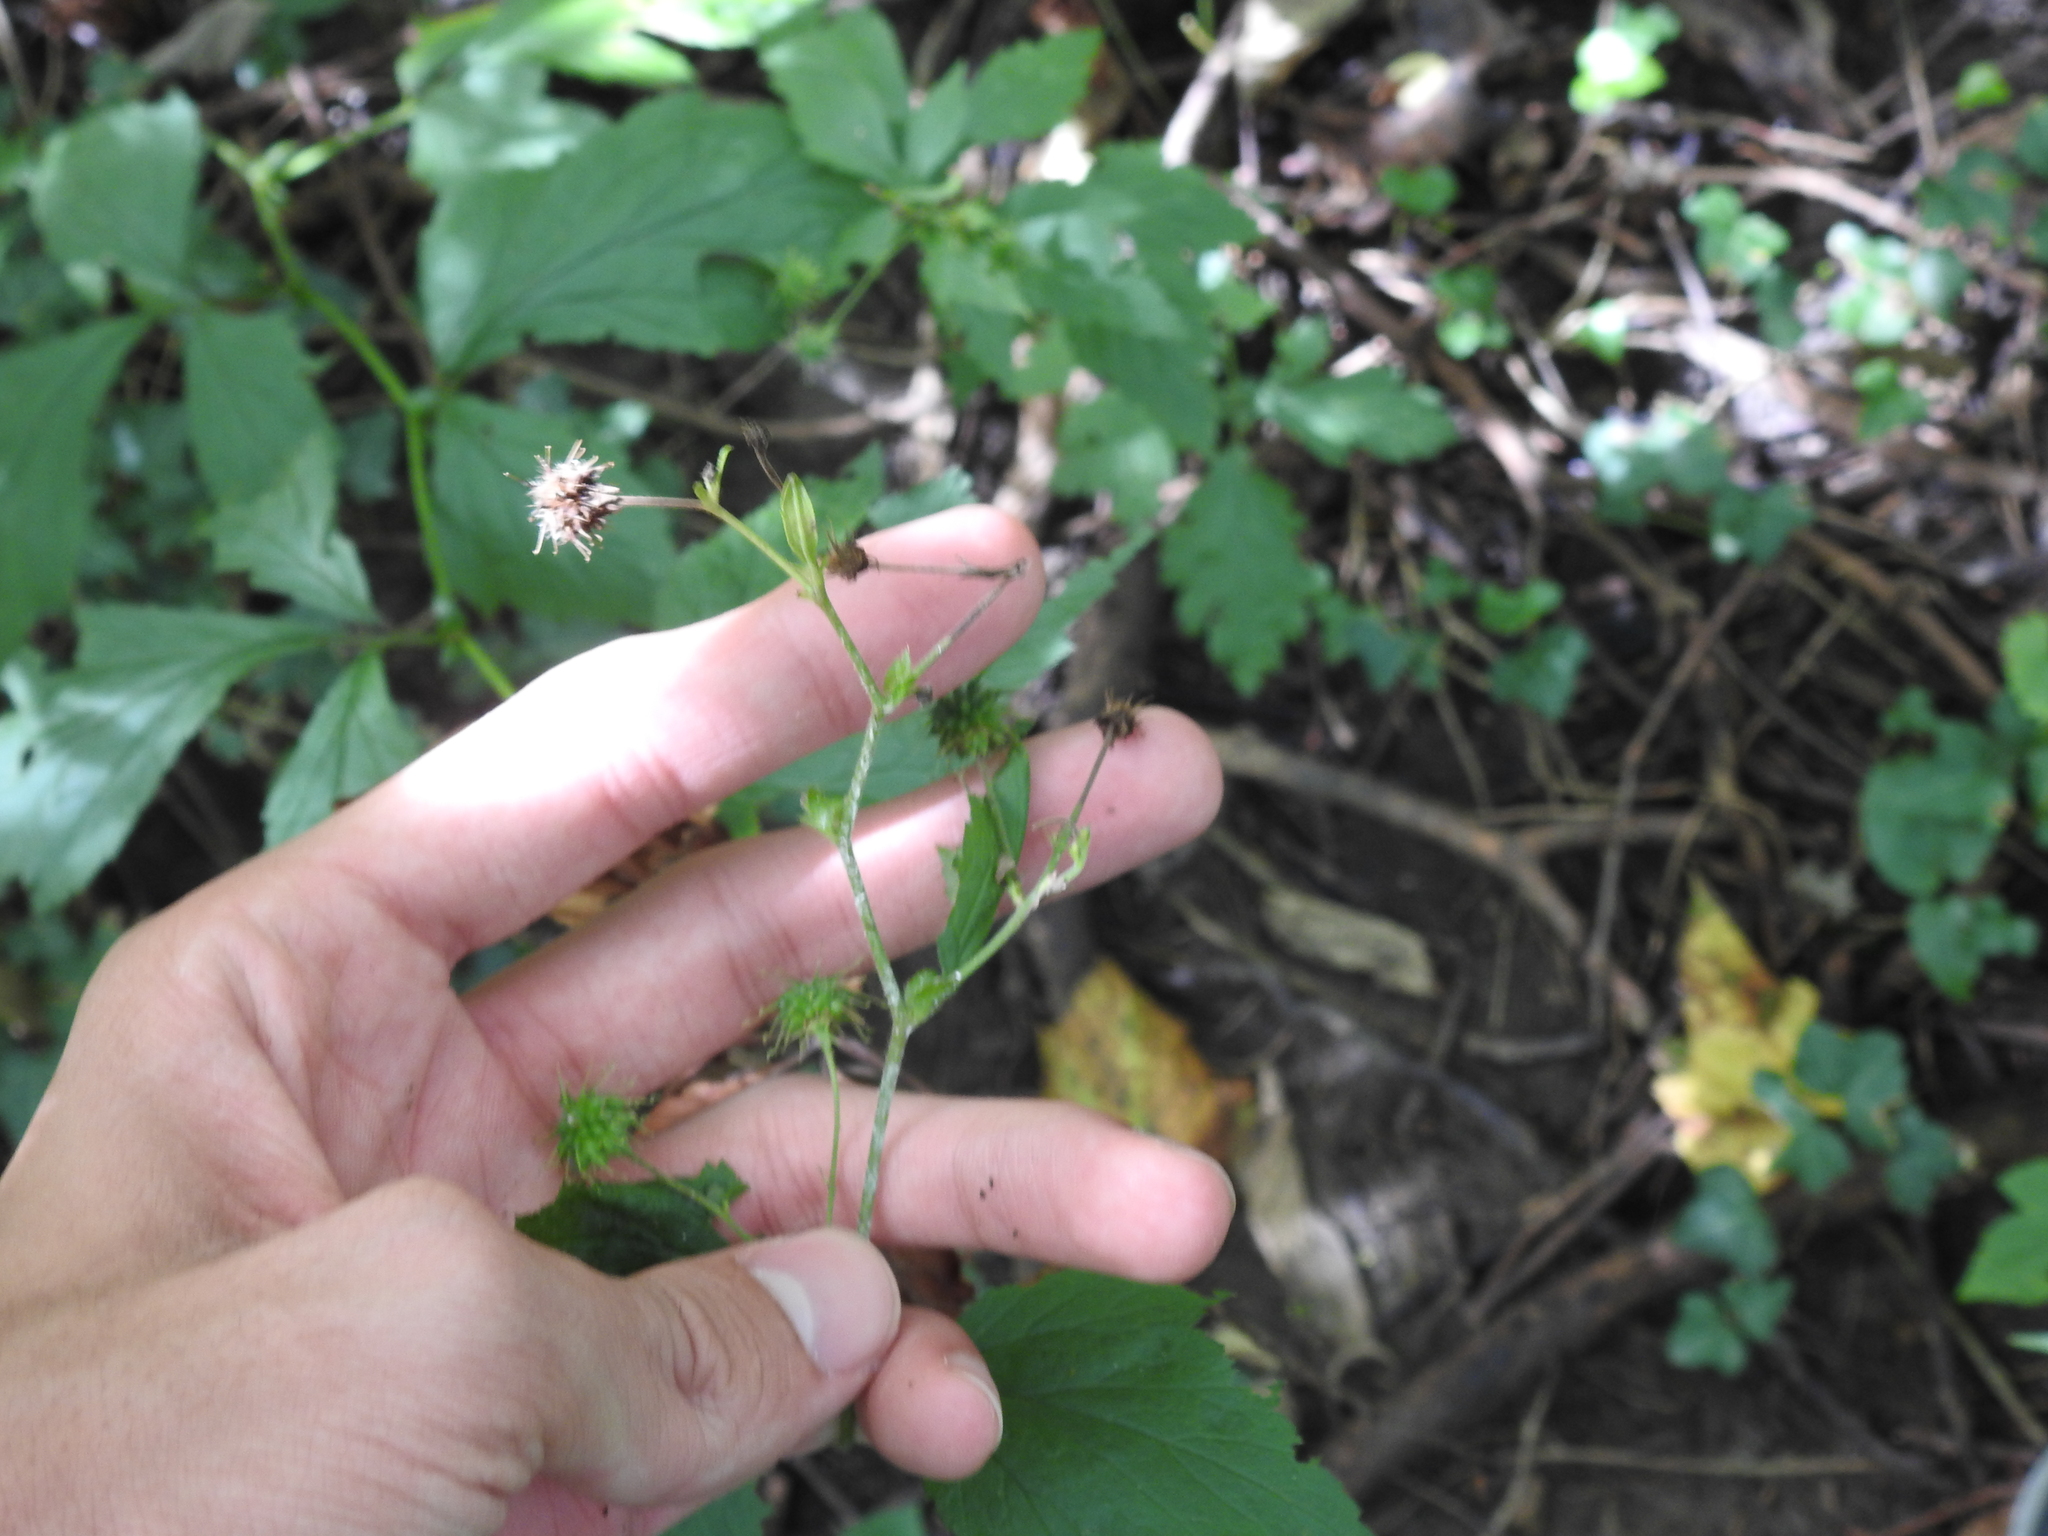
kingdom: Plantae
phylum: Tracheophyta
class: Magnoliopsida
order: Rosales
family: Rosaceae
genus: Geum
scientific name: Geum canadense
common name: White avens
